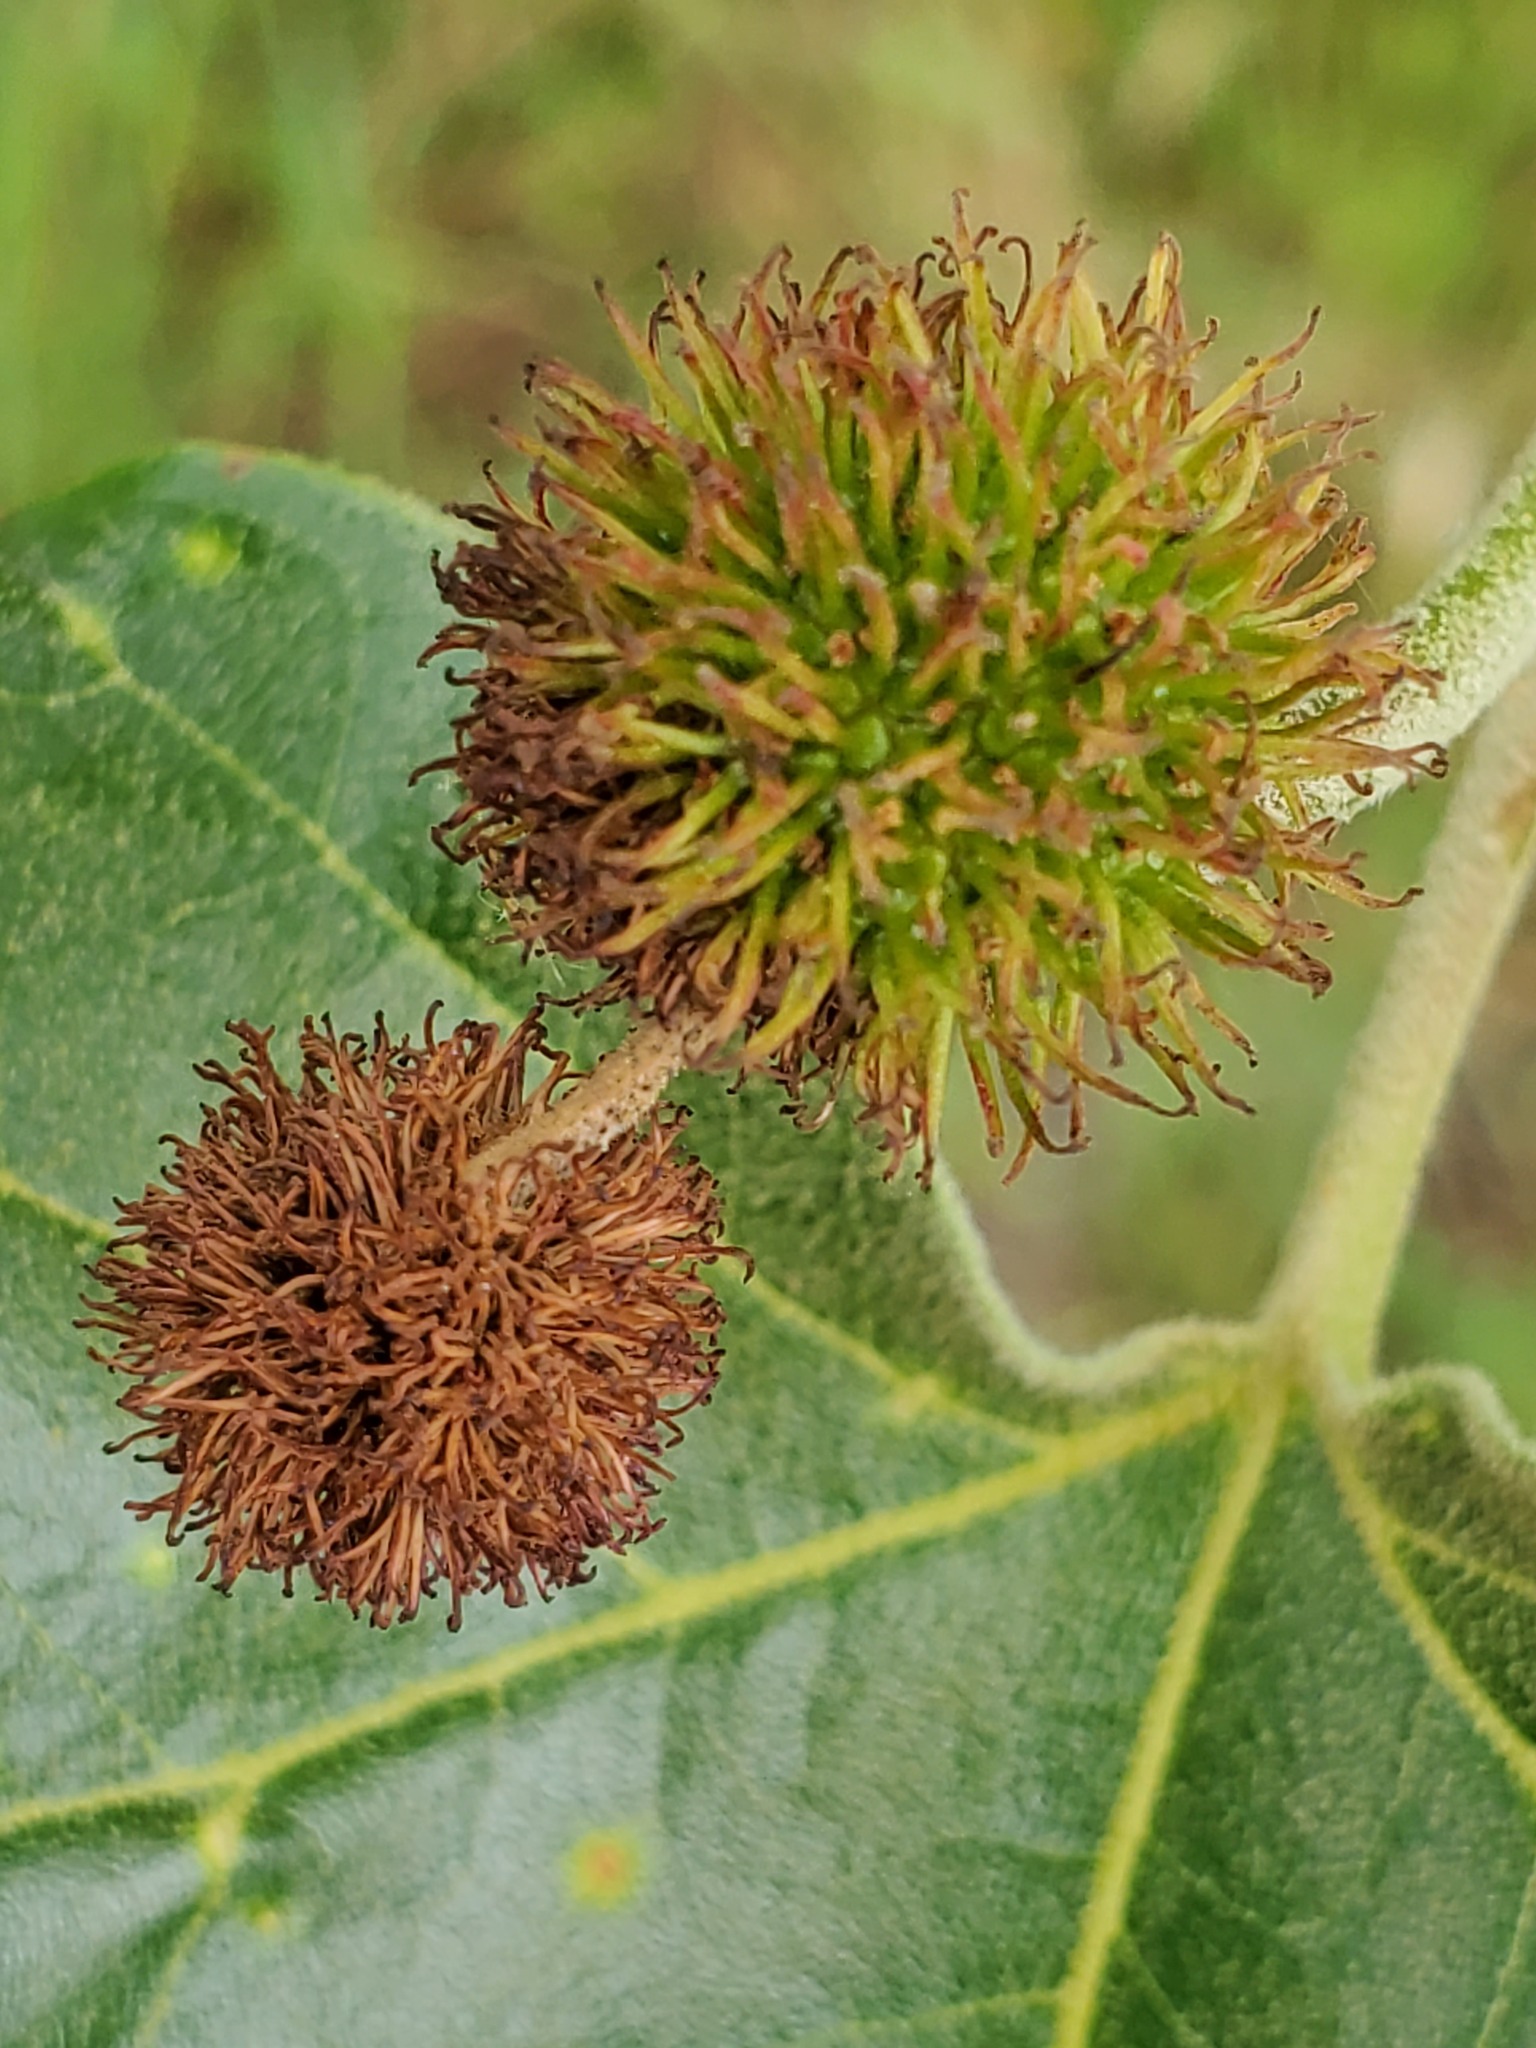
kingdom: Plantae
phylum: Tracheophyta
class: Magnoliopsida
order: Proteales
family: Platanaceae
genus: Platanus
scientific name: Platanus racemosa
